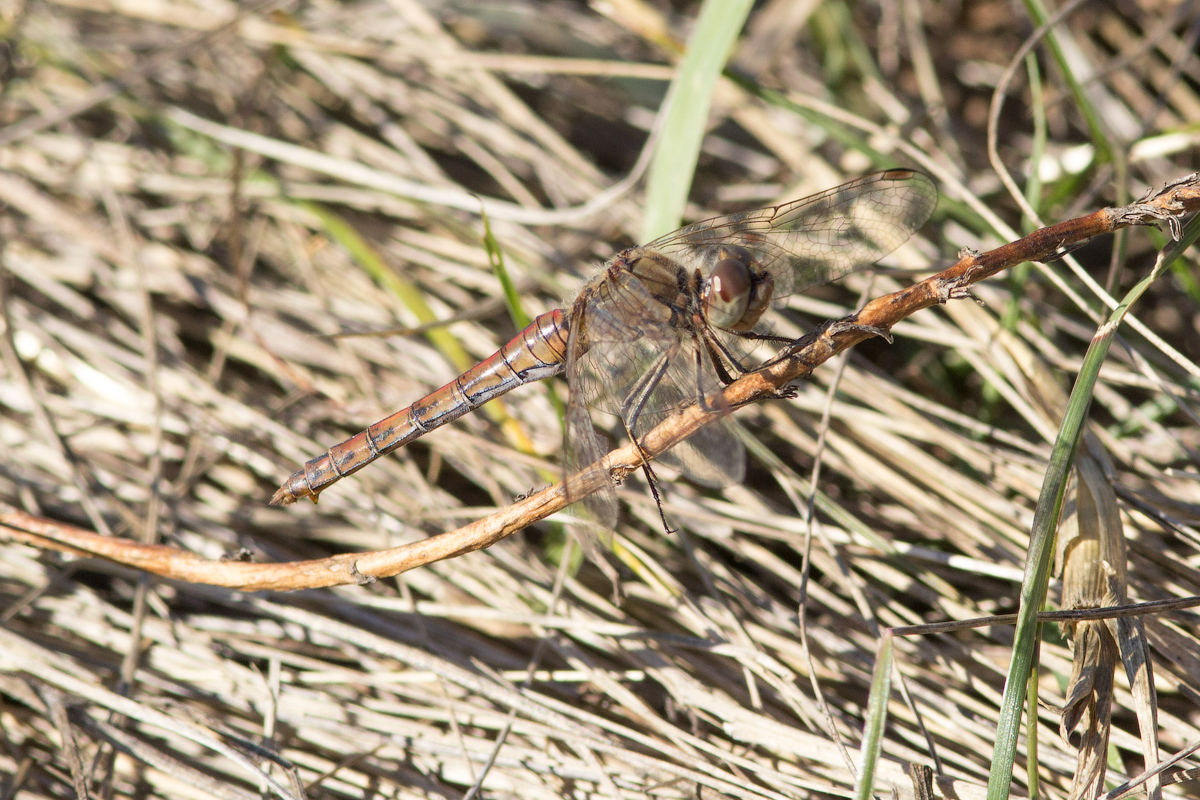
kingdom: Animalia
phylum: Arthropoda
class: Insecta
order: Odonata
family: Libellulidae
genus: Sympetrum
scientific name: Sympetrum vulgatum
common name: Vagrant darter
